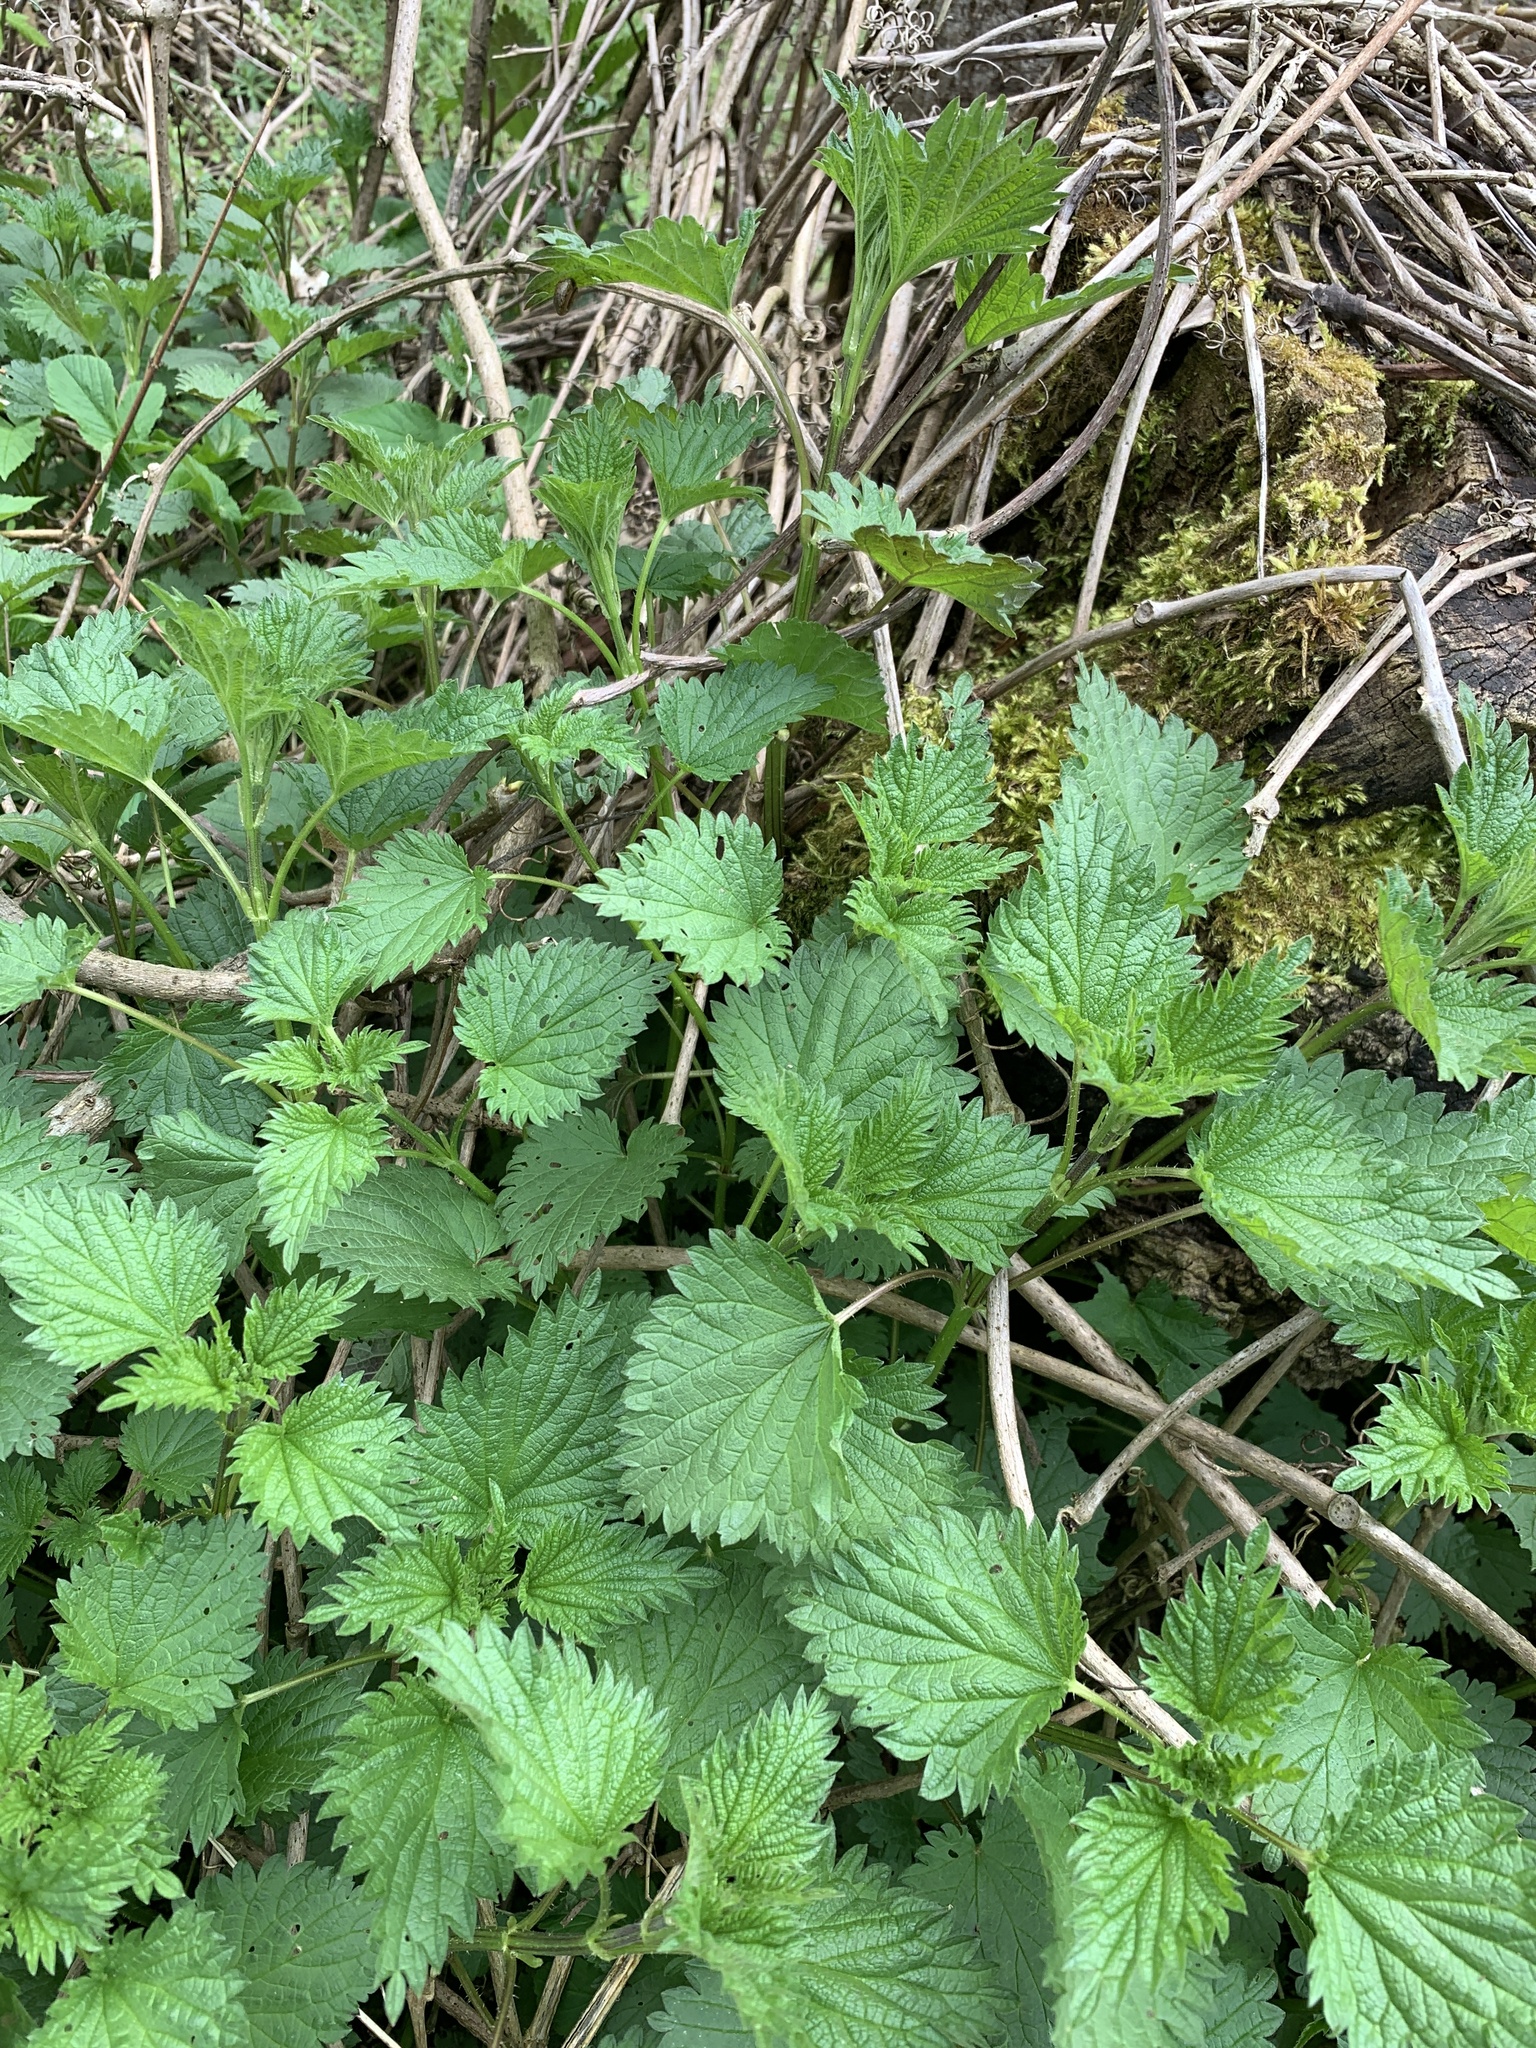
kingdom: Plantae
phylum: Tracheophyta
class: Magnoliopsida
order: Rosales
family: Urticaceae
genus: Urtica
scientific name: Urtica dioica
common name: Common nettle
